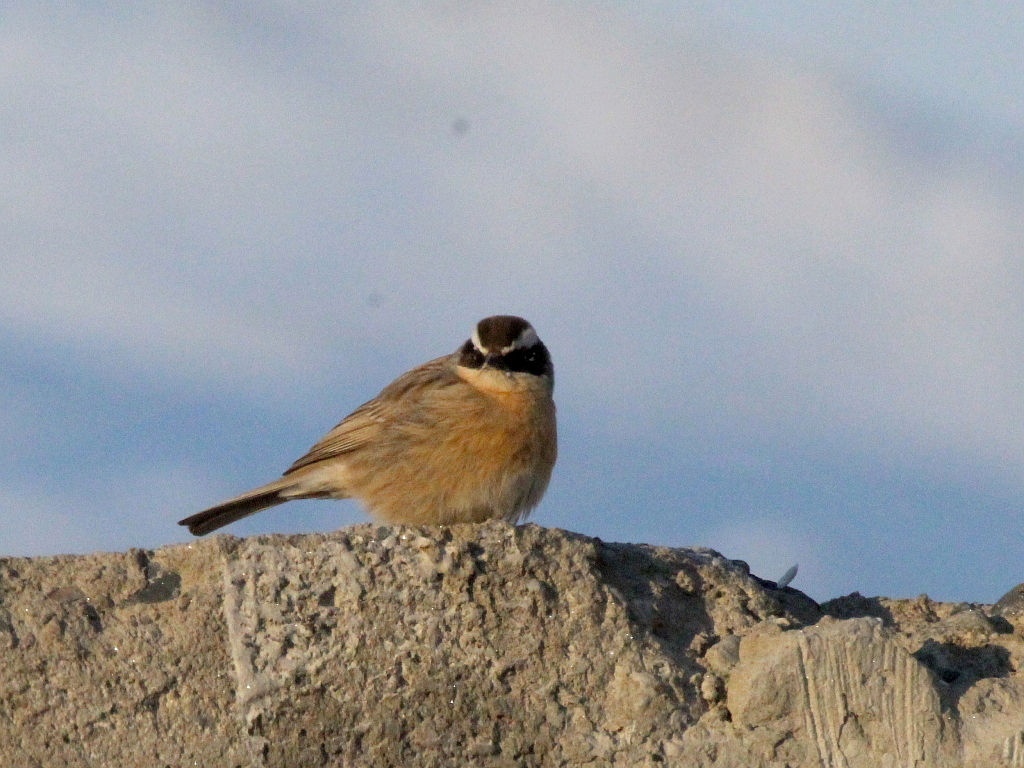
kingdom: Animalia
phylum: Chordata
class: Aves
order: Passeriformes
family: Prunellidae
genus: Prunella
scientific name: Prunella fulvescens
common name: Brown accentor
